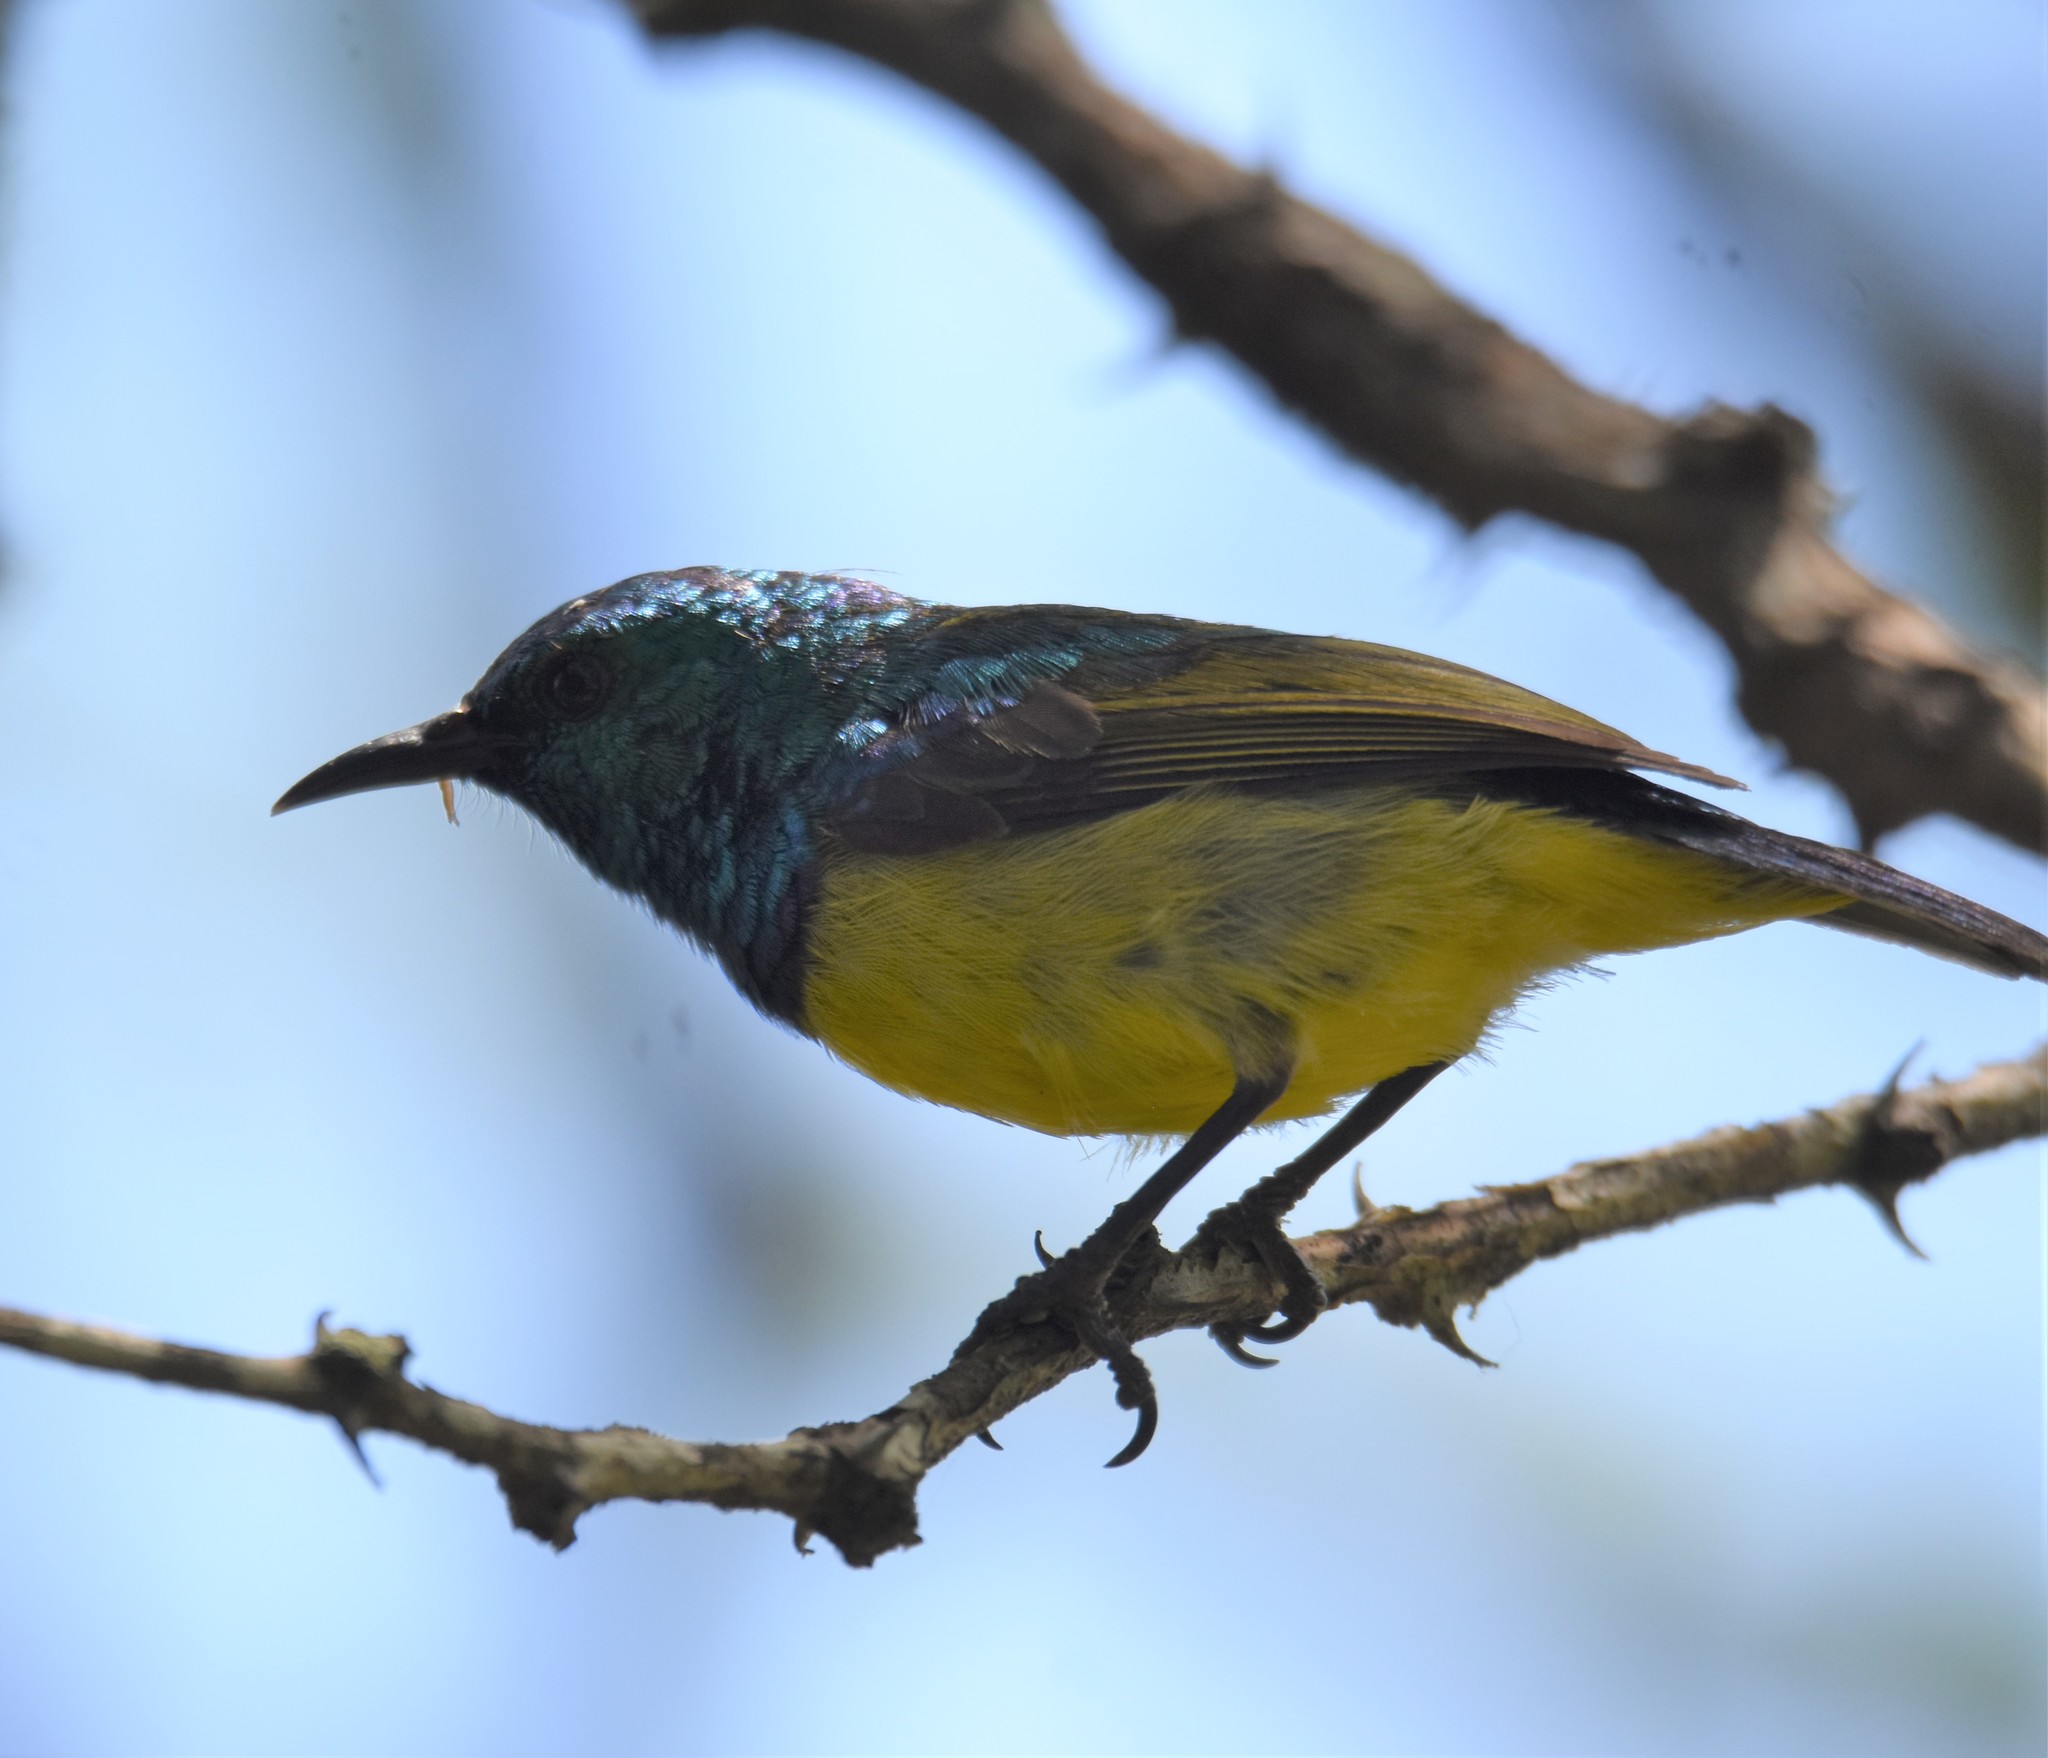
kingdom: Animalia
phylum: Chordata
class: Aves
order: Passeriformes
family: Nectariniidae
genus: Hedydipna
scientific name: Hedydipna collaris
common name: Collared sunbird
